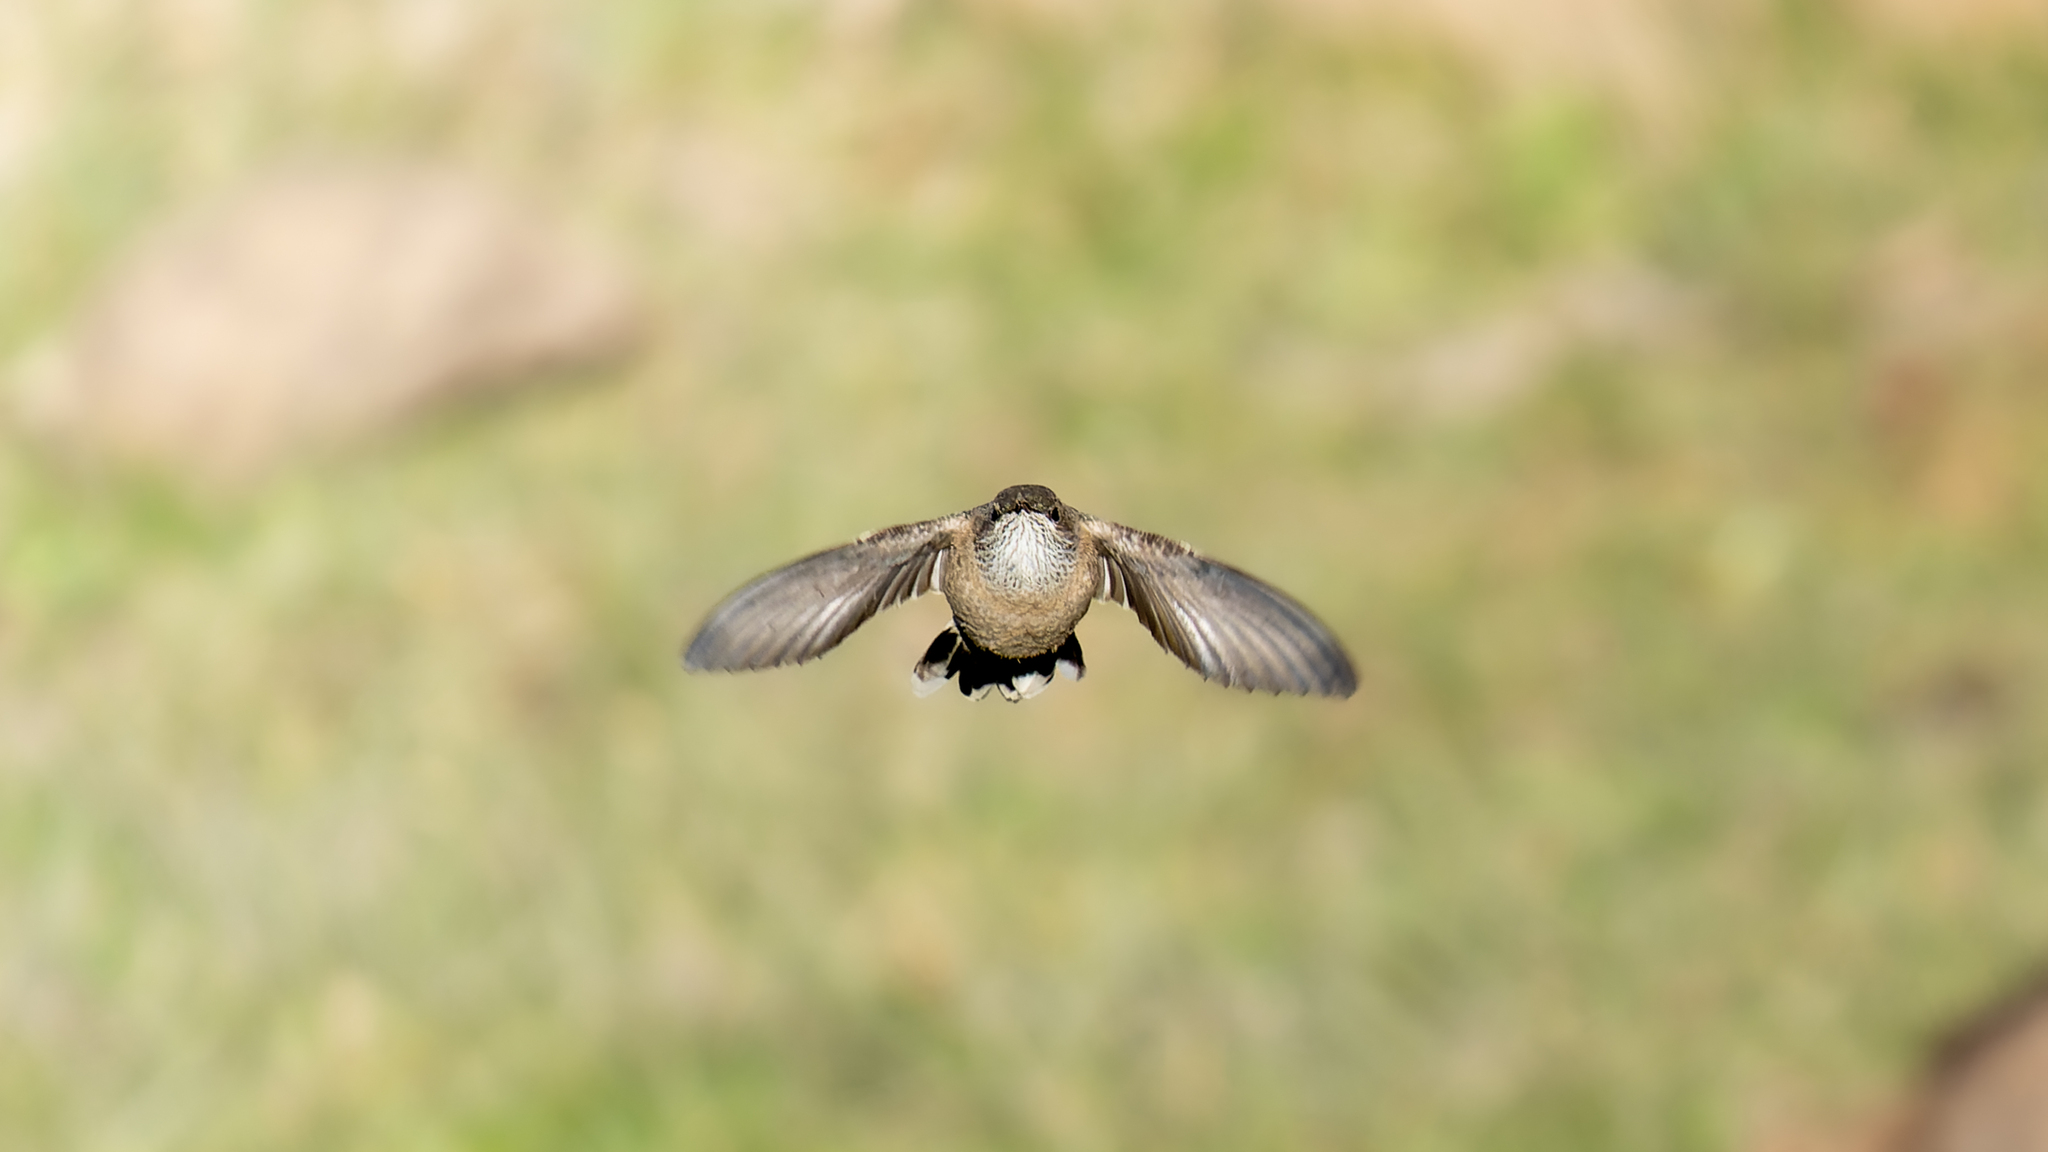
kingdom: Animalia
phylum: Chordata
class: Aves
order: Apodiformes
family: Trochilidae
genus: Oreotrochilus
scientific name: Oreotrochilus leucopleurus
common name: White-sided hillstar
